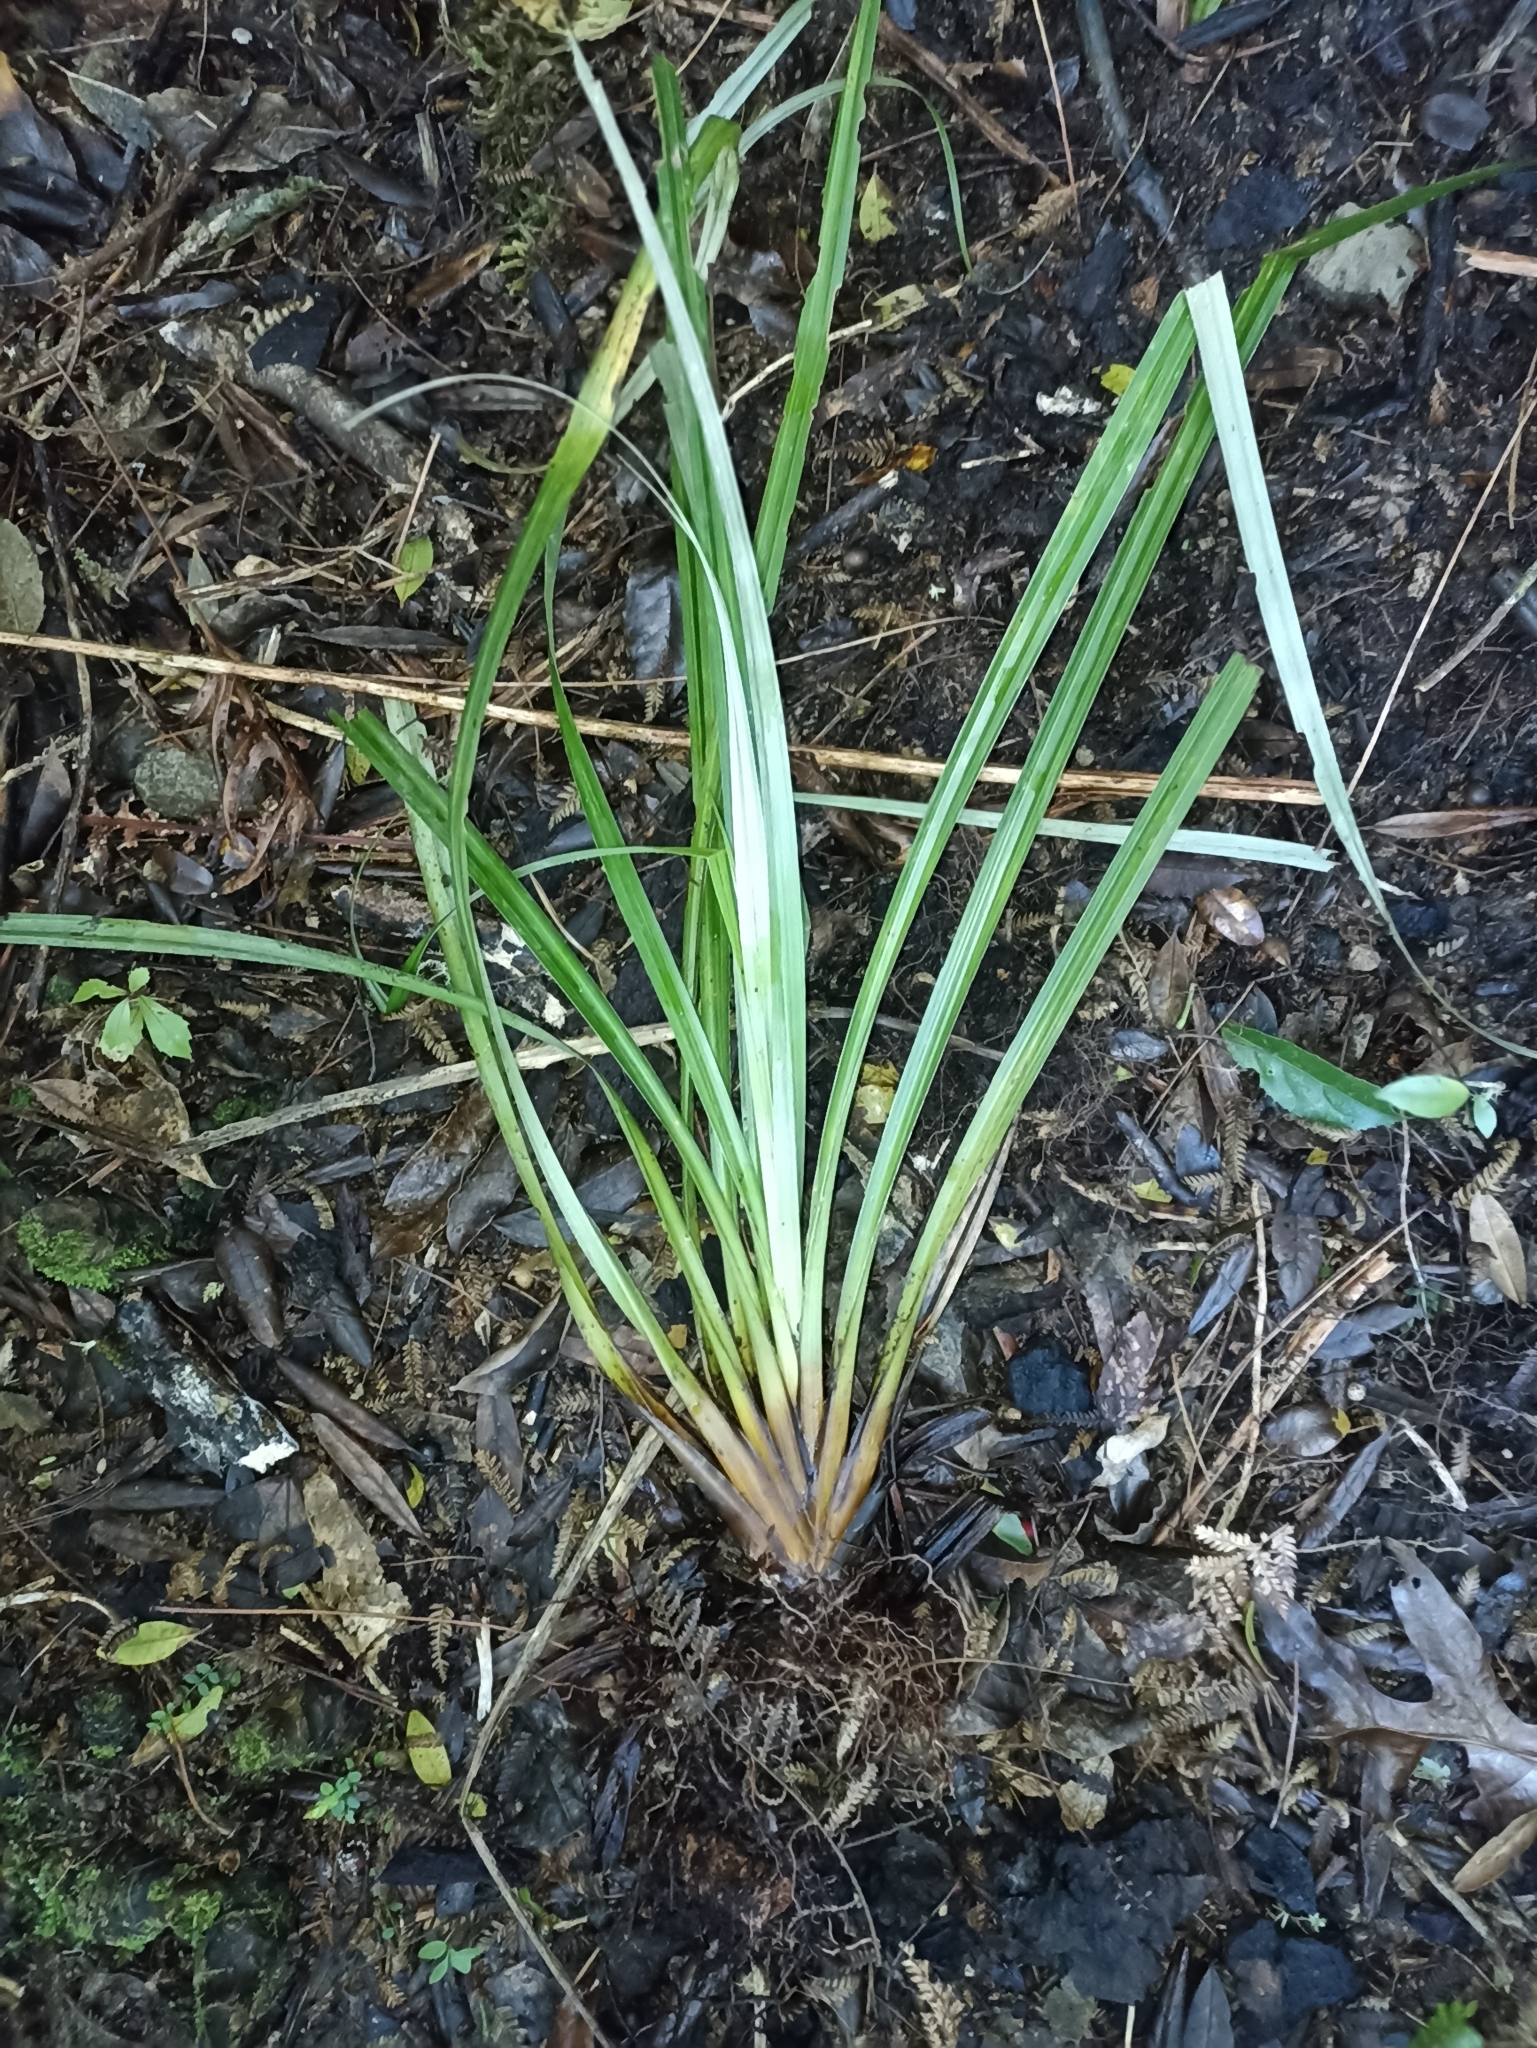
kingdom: Plantae
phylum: Tracheophyta
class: Liliopsida
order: Asparagales
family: Asteliaceae
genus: Astelia
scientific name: Astelia microsperma
